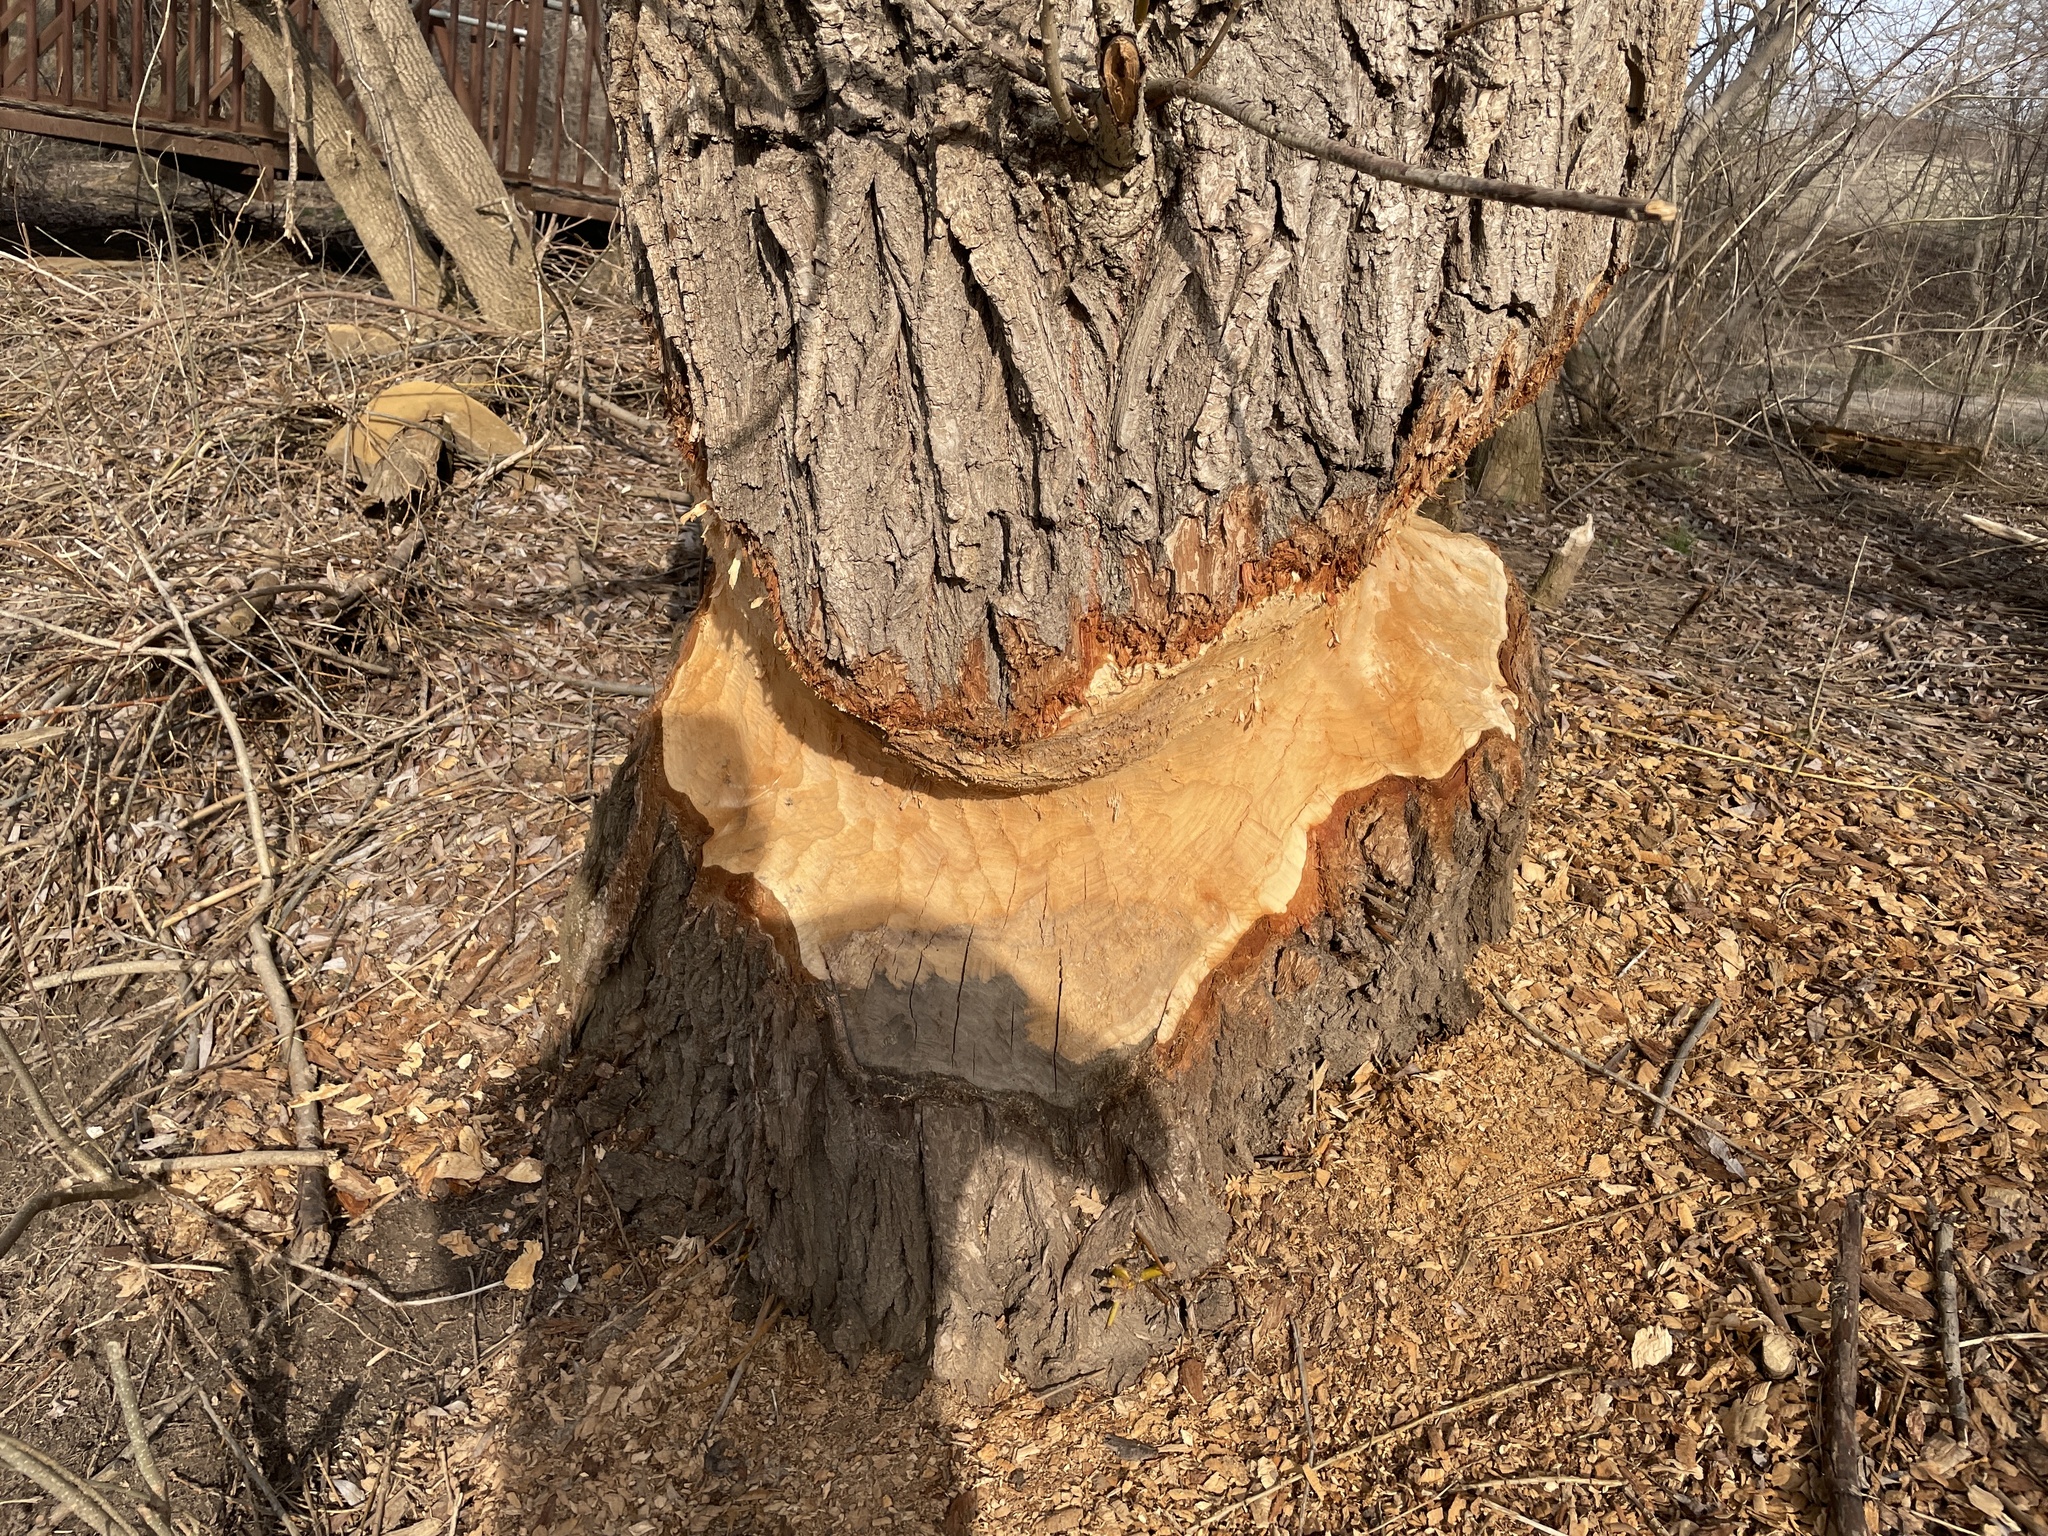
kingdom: Animalia
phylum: Chordata
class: Mammalia
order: Rodentia
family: Castoridae
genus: Castor
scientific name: Castor canadensis
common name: American beaver
